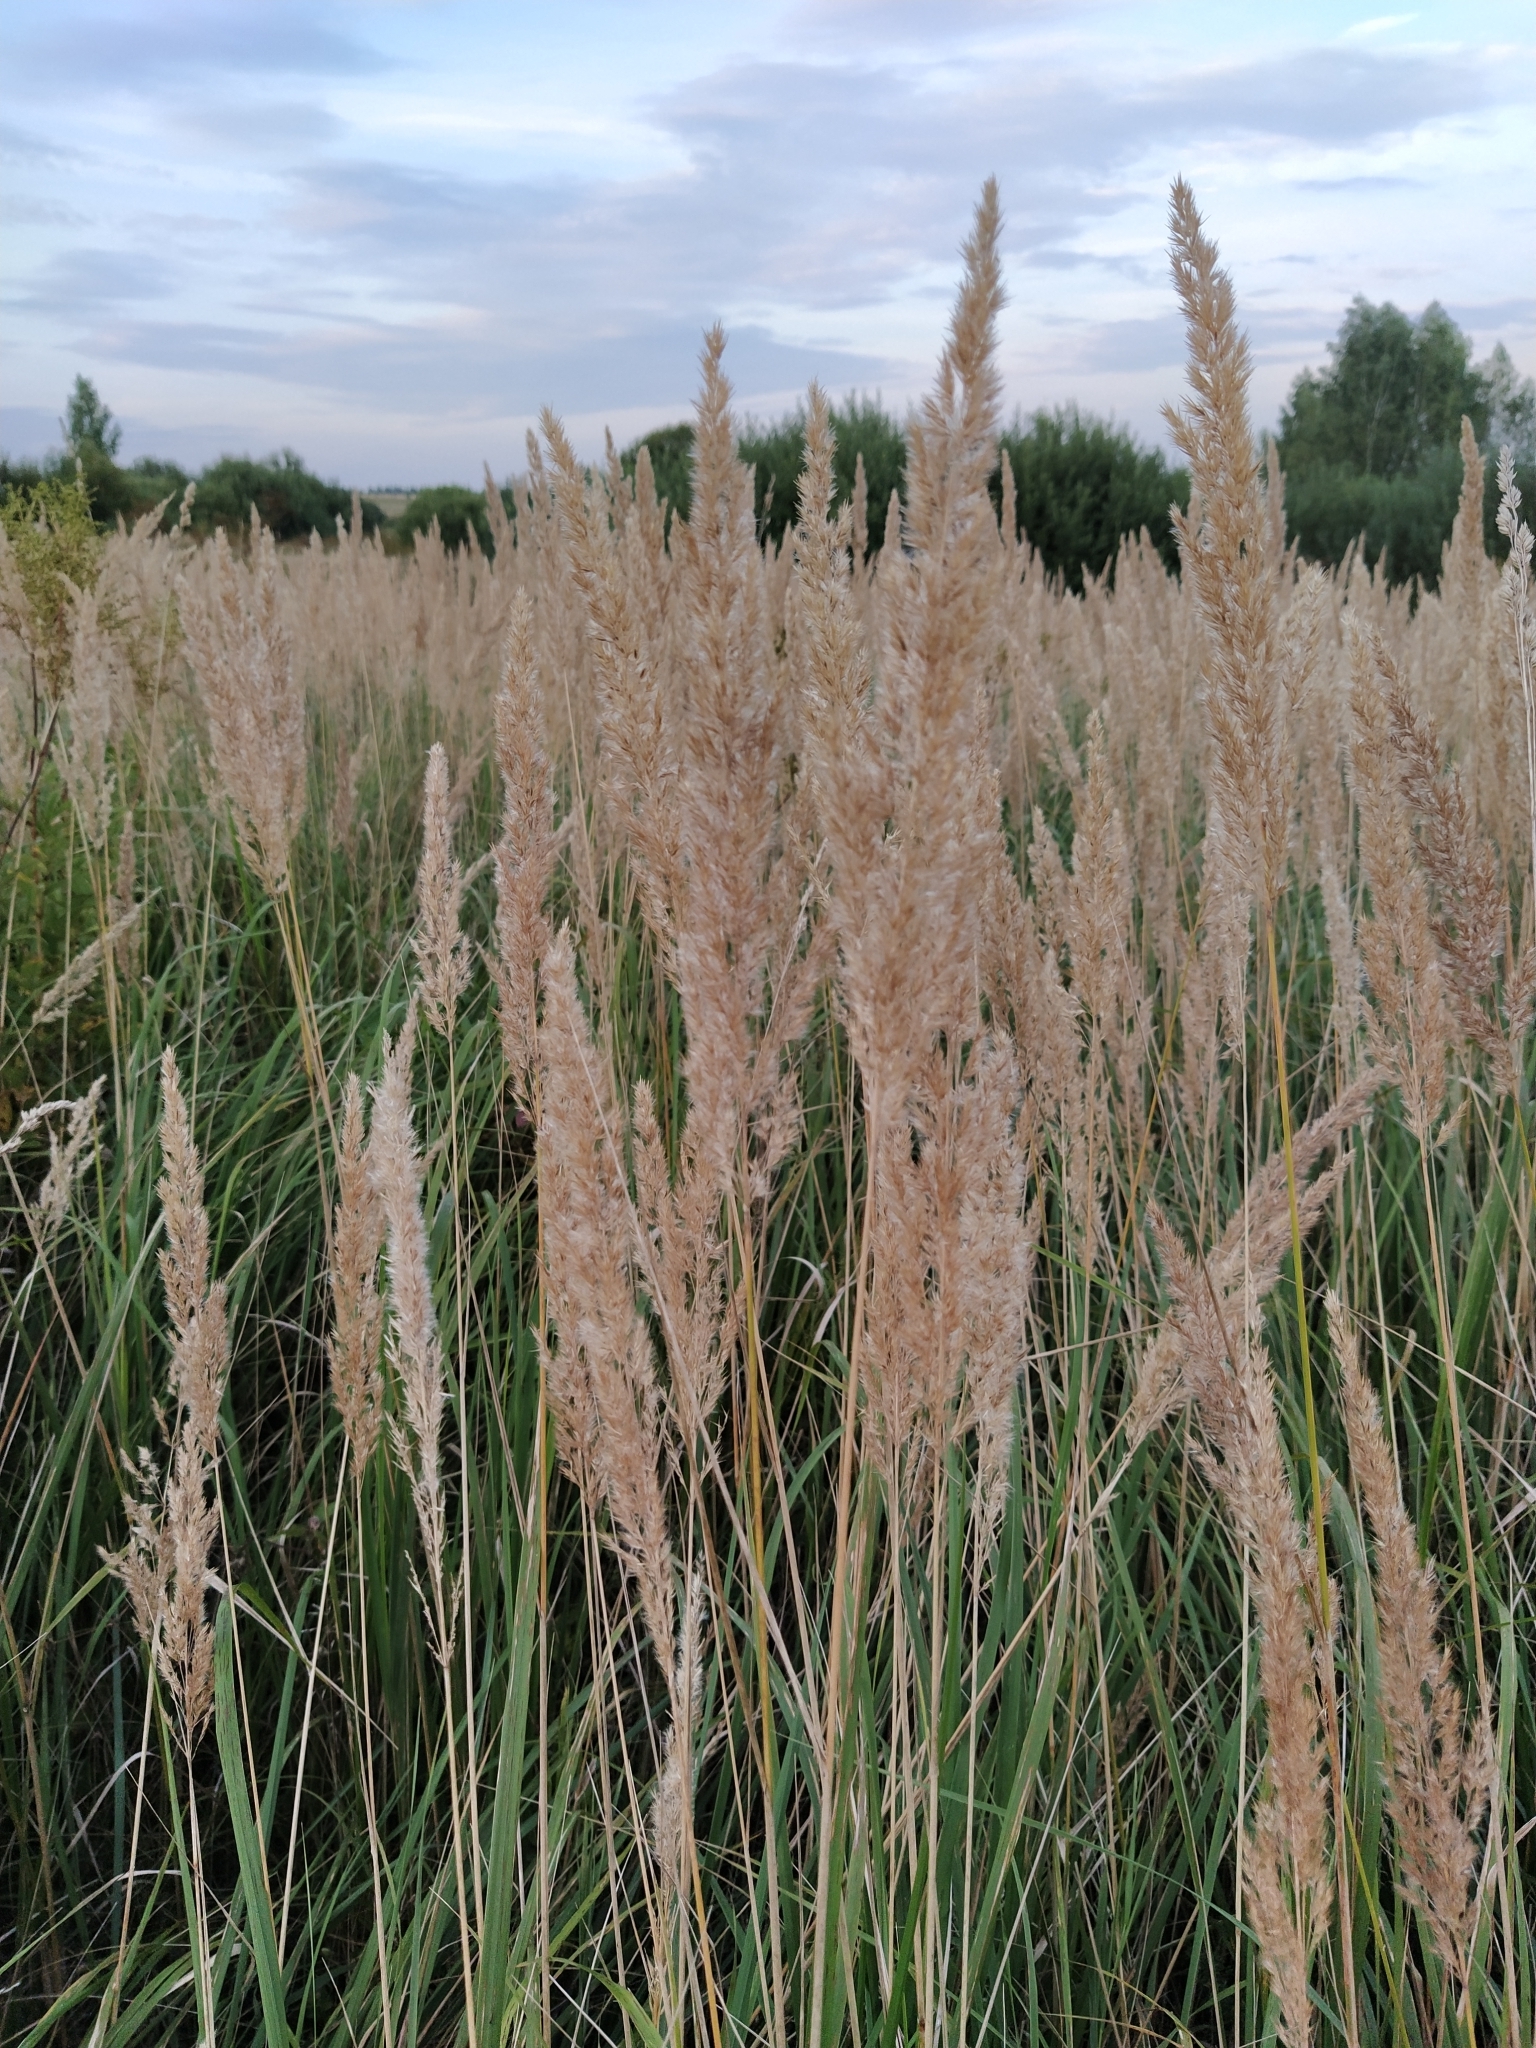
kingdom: Plantae
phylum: Tracheophyta
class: Liliopsida
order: Poales
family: Poaceae
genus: Calamagrostis
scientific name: Calamagrostis epigejos
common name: Wood small-reed
